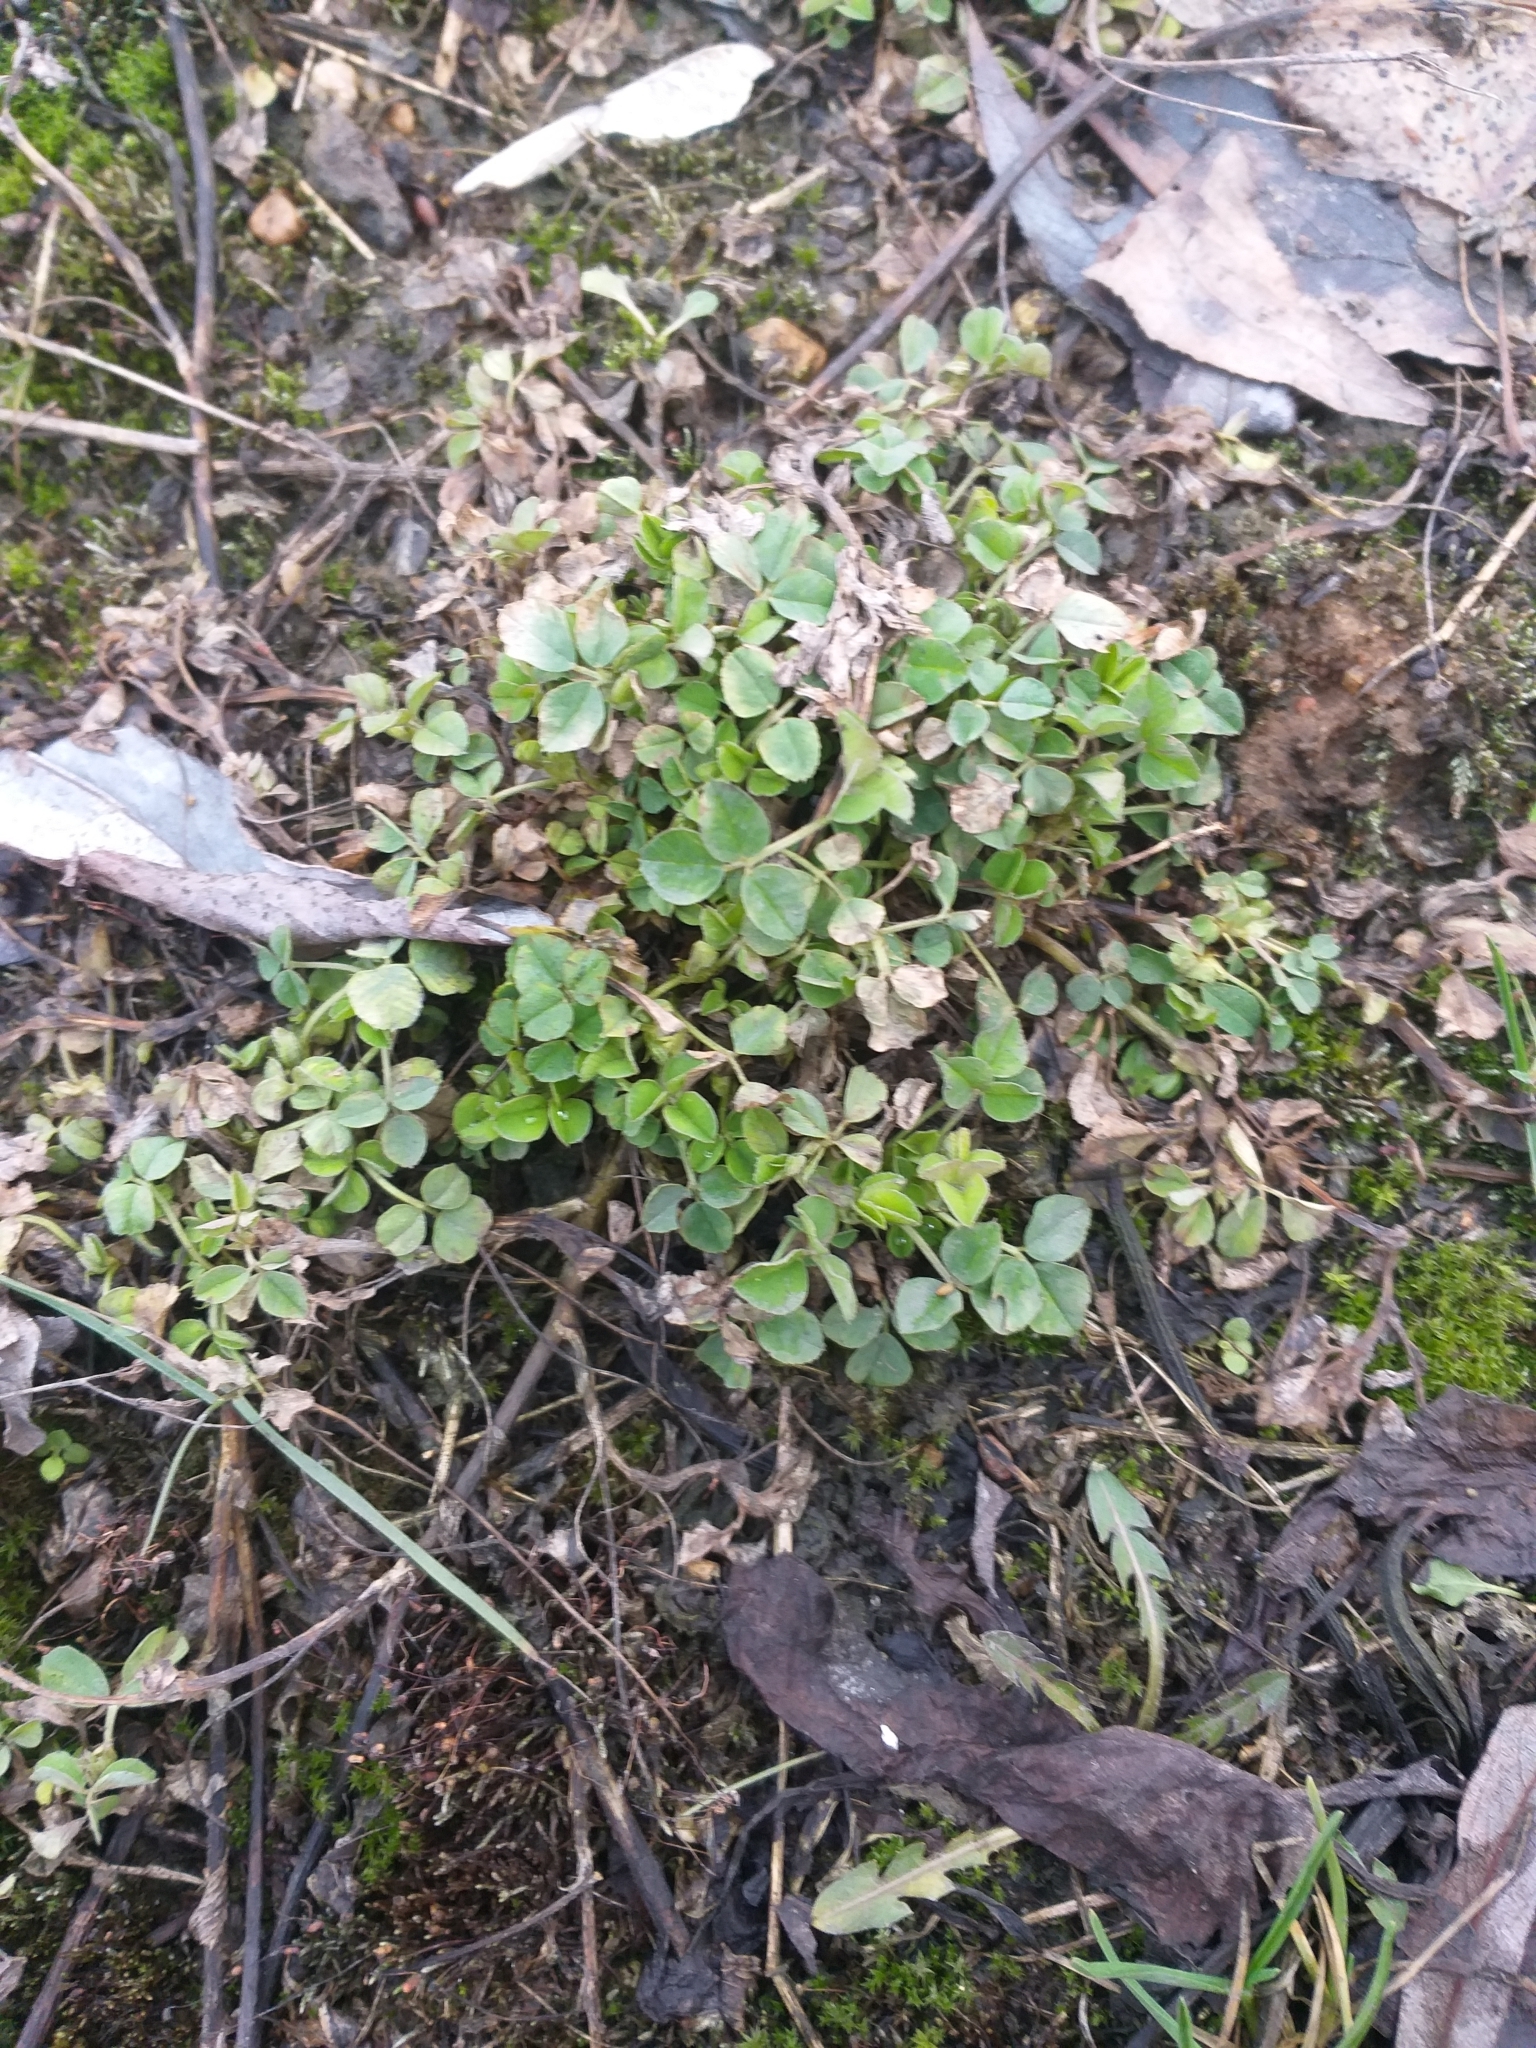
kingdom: Plantae
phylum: Tracheophyta
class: Magnoliopsida
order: Fabales
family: Fabaceae
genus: Medicago
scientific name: Medicago lupulina
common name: Black medick
